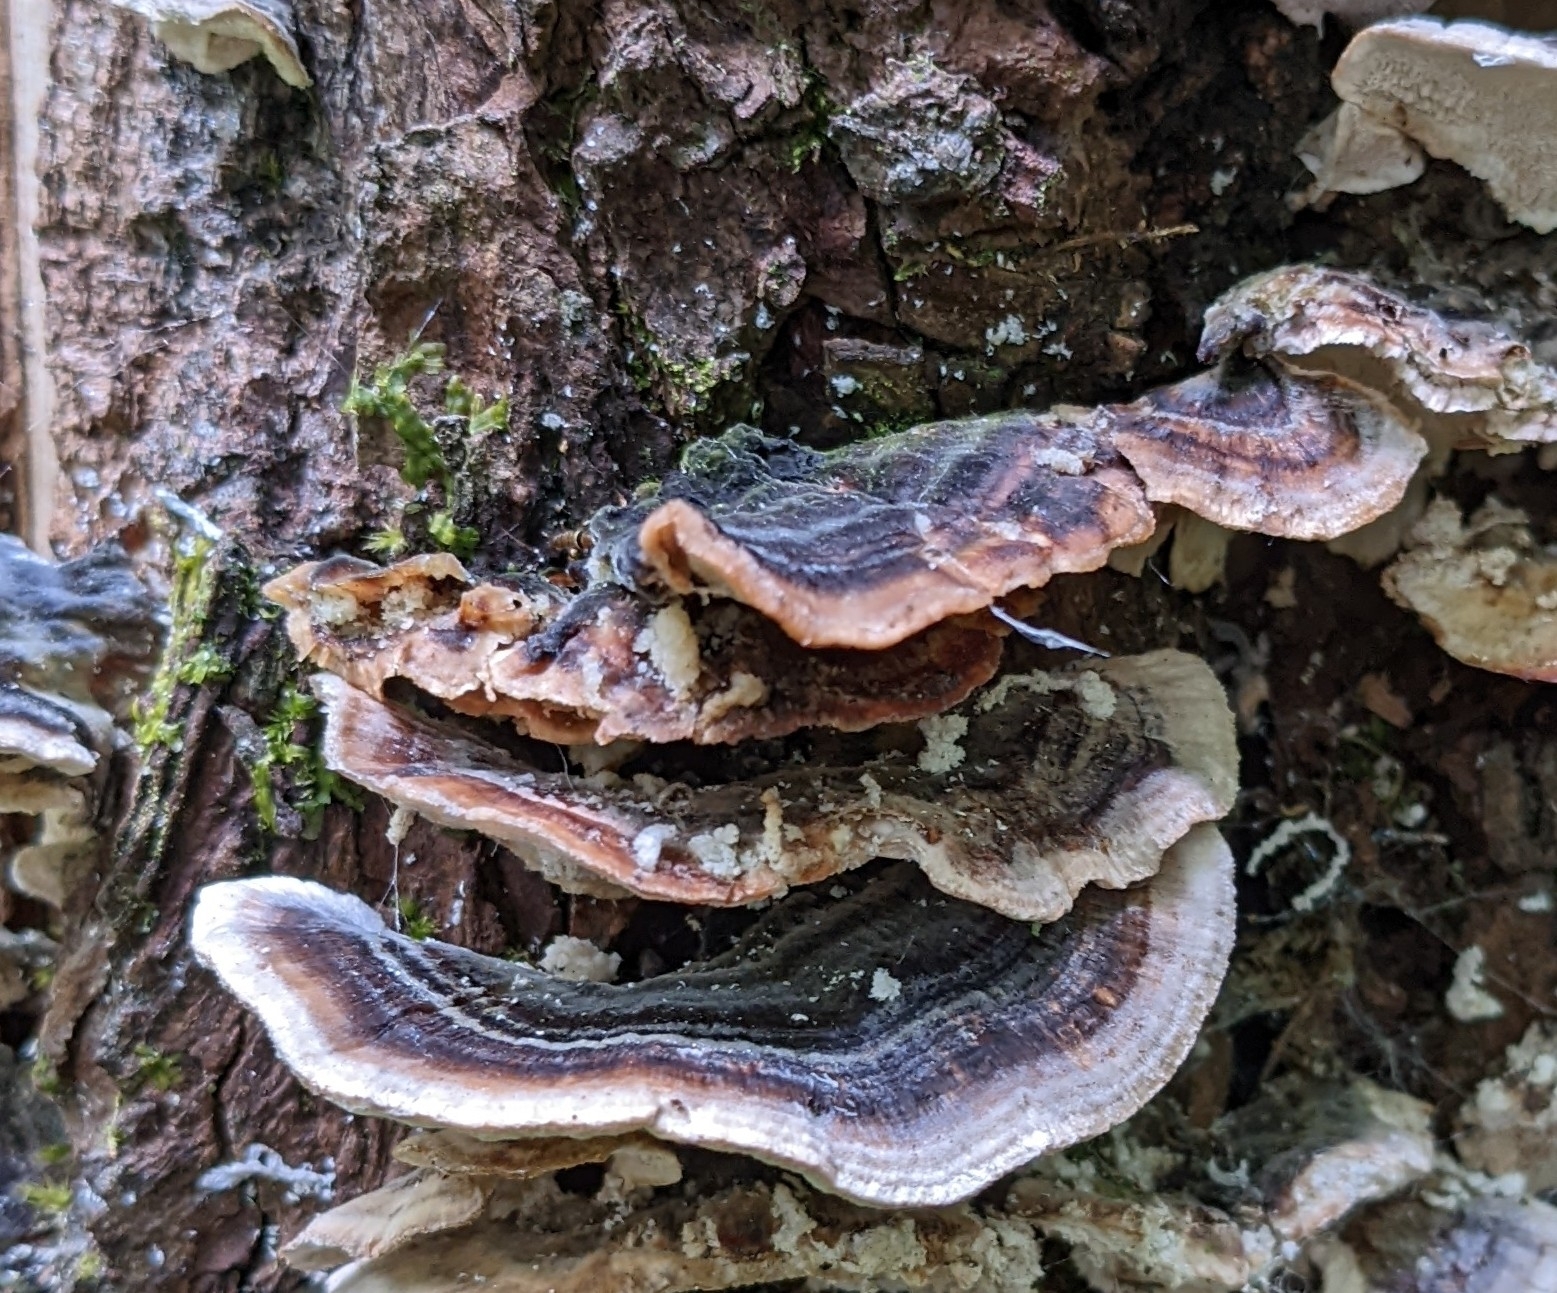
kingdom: Fungi
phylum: Basidiomycota
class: Agaricomycetes
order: Polyporales
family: Polyporaceae
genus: Trametes
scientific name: Trametes versicolor
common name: Turkeytail
